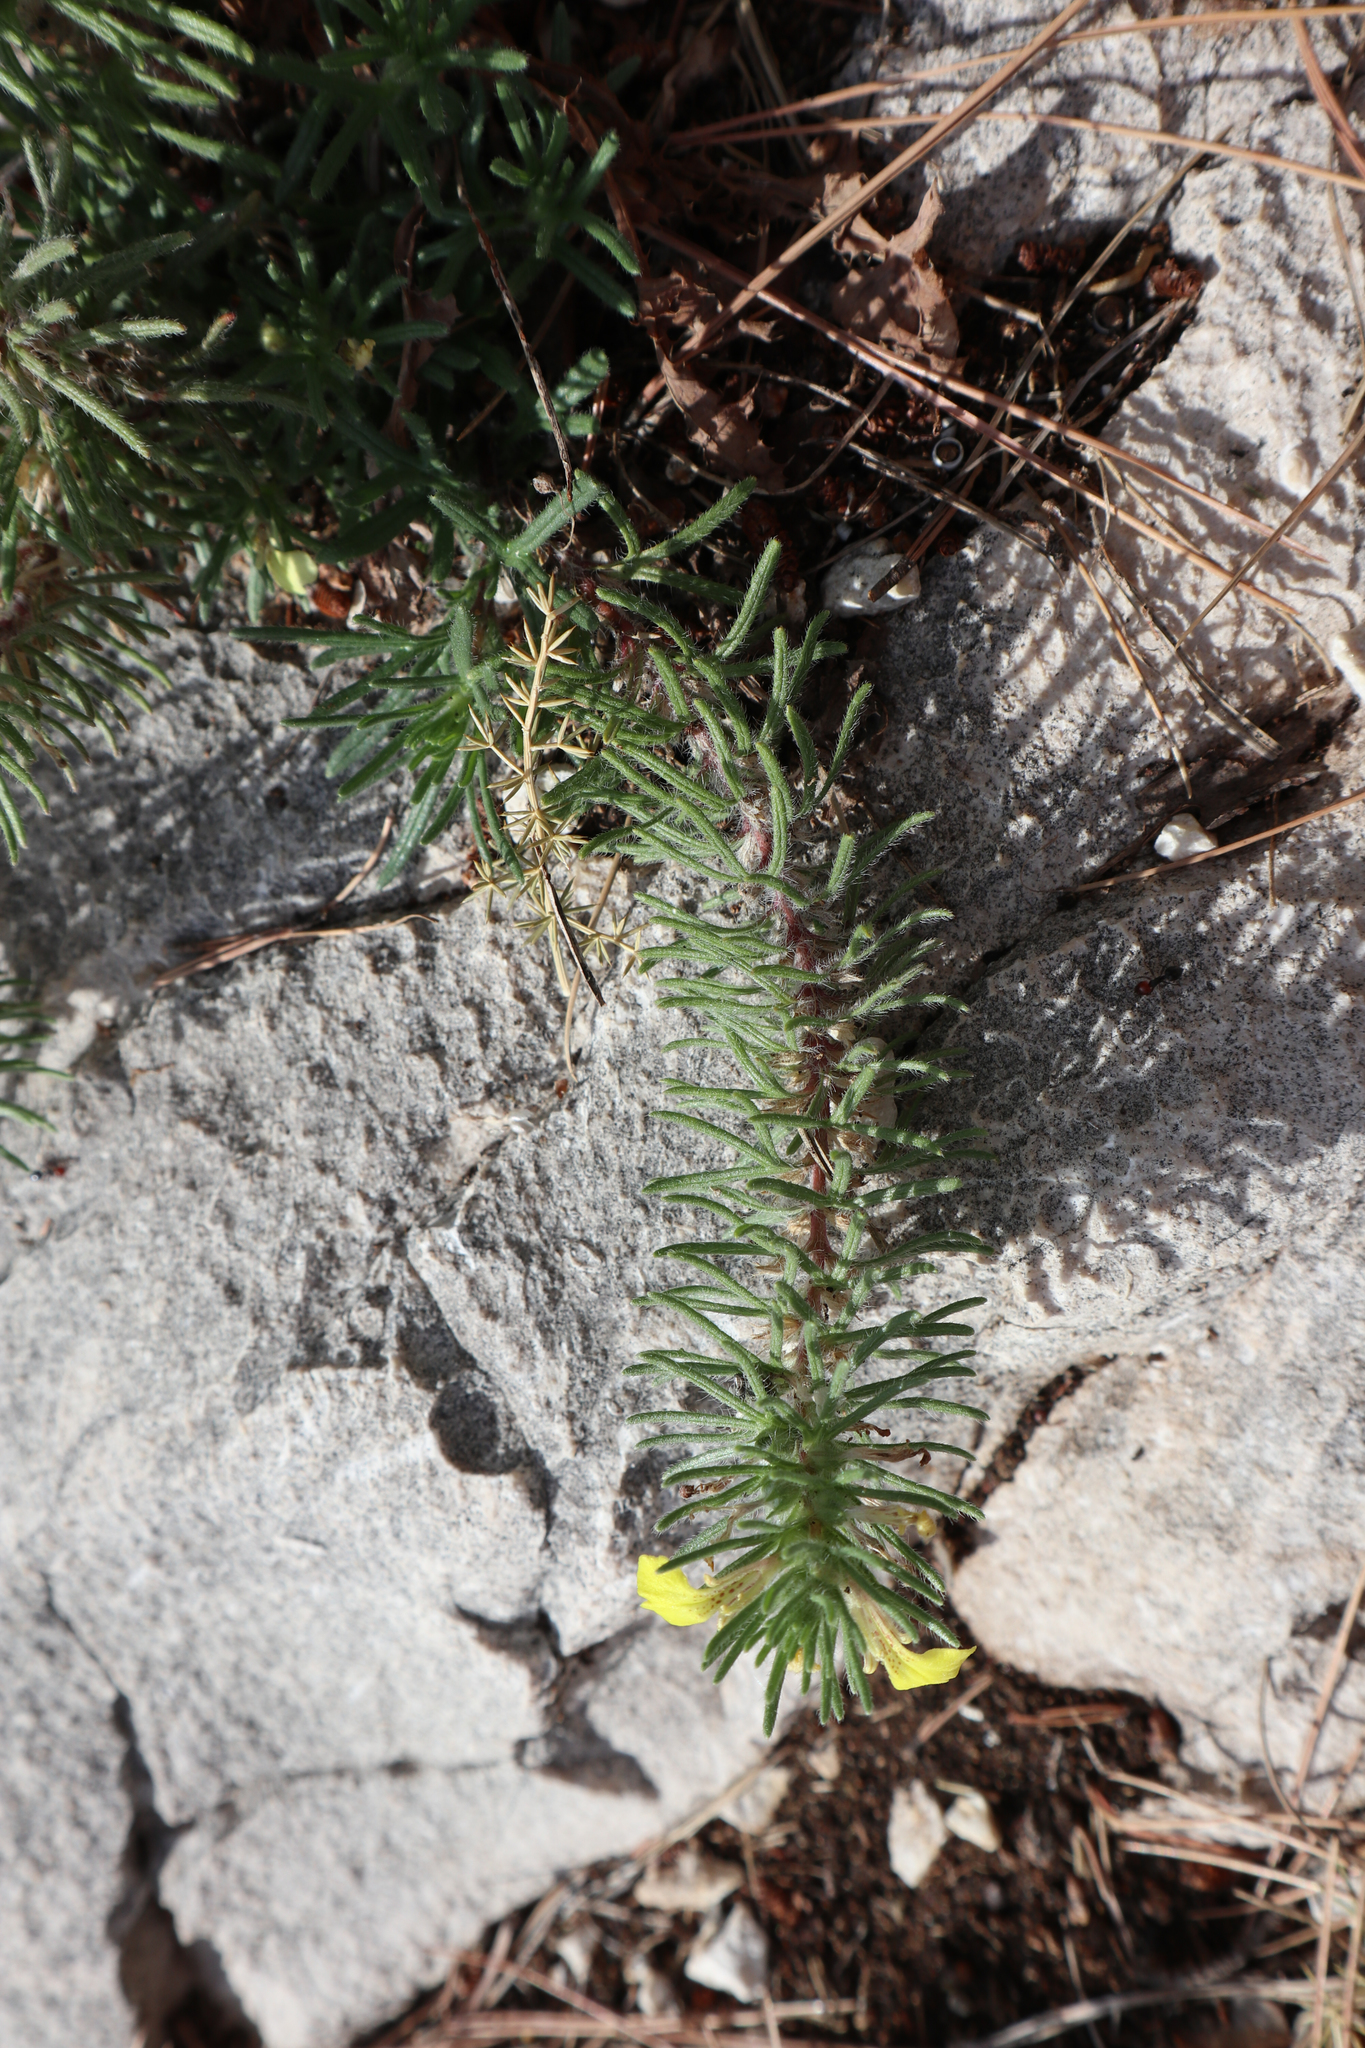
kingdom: Plantae
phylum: Tracheophyta
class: Magnoliopsida
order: Lamiales
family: Lamiaceae
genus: Ajuga
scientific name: Ajuga chamaepitys
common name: Ground-pine
